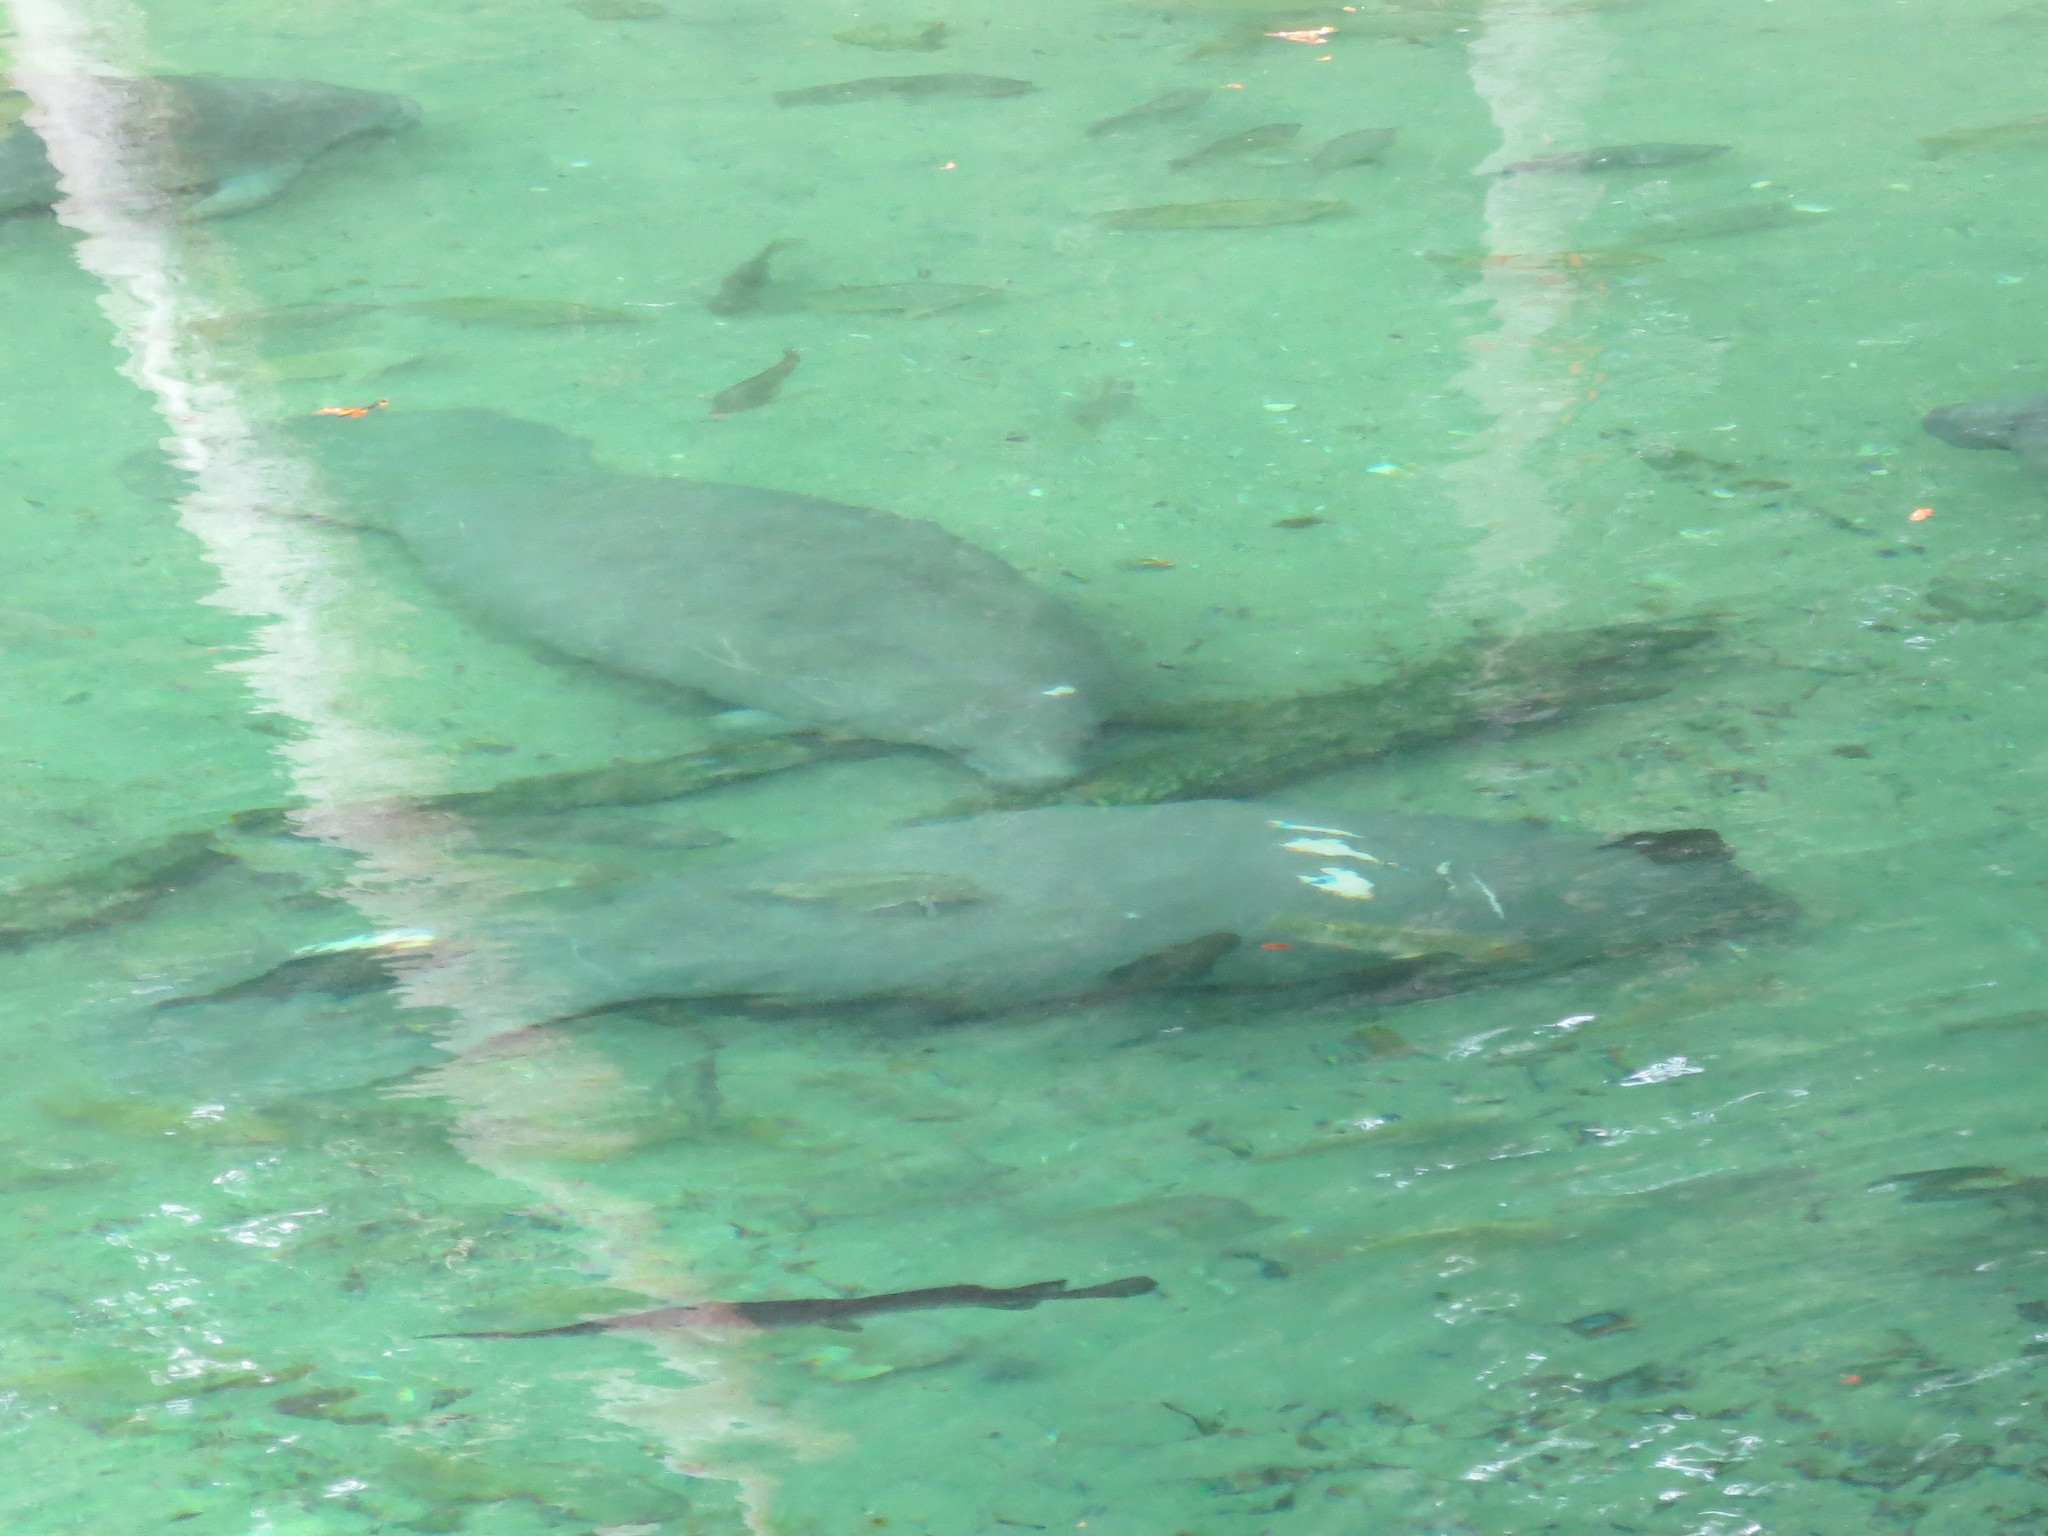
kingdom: Animalia
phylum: Chordata
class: Mammalia
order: Sirenia
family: Trichechidae
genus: Trichechus
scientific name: Trichechus manatus
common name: West indian manatee
